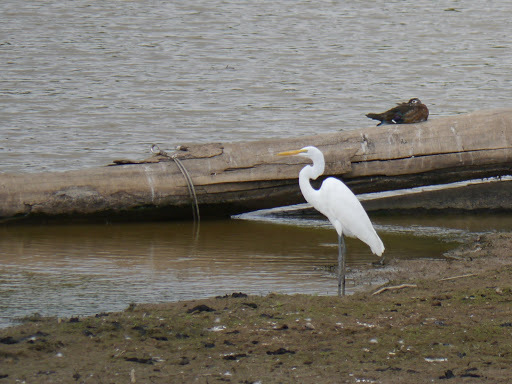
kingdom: Animalia
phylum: Chordata
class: Aves
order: Pelecaniformes
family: Ardeidae
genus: Ardea
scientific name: Ardea alba
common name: Great egret
